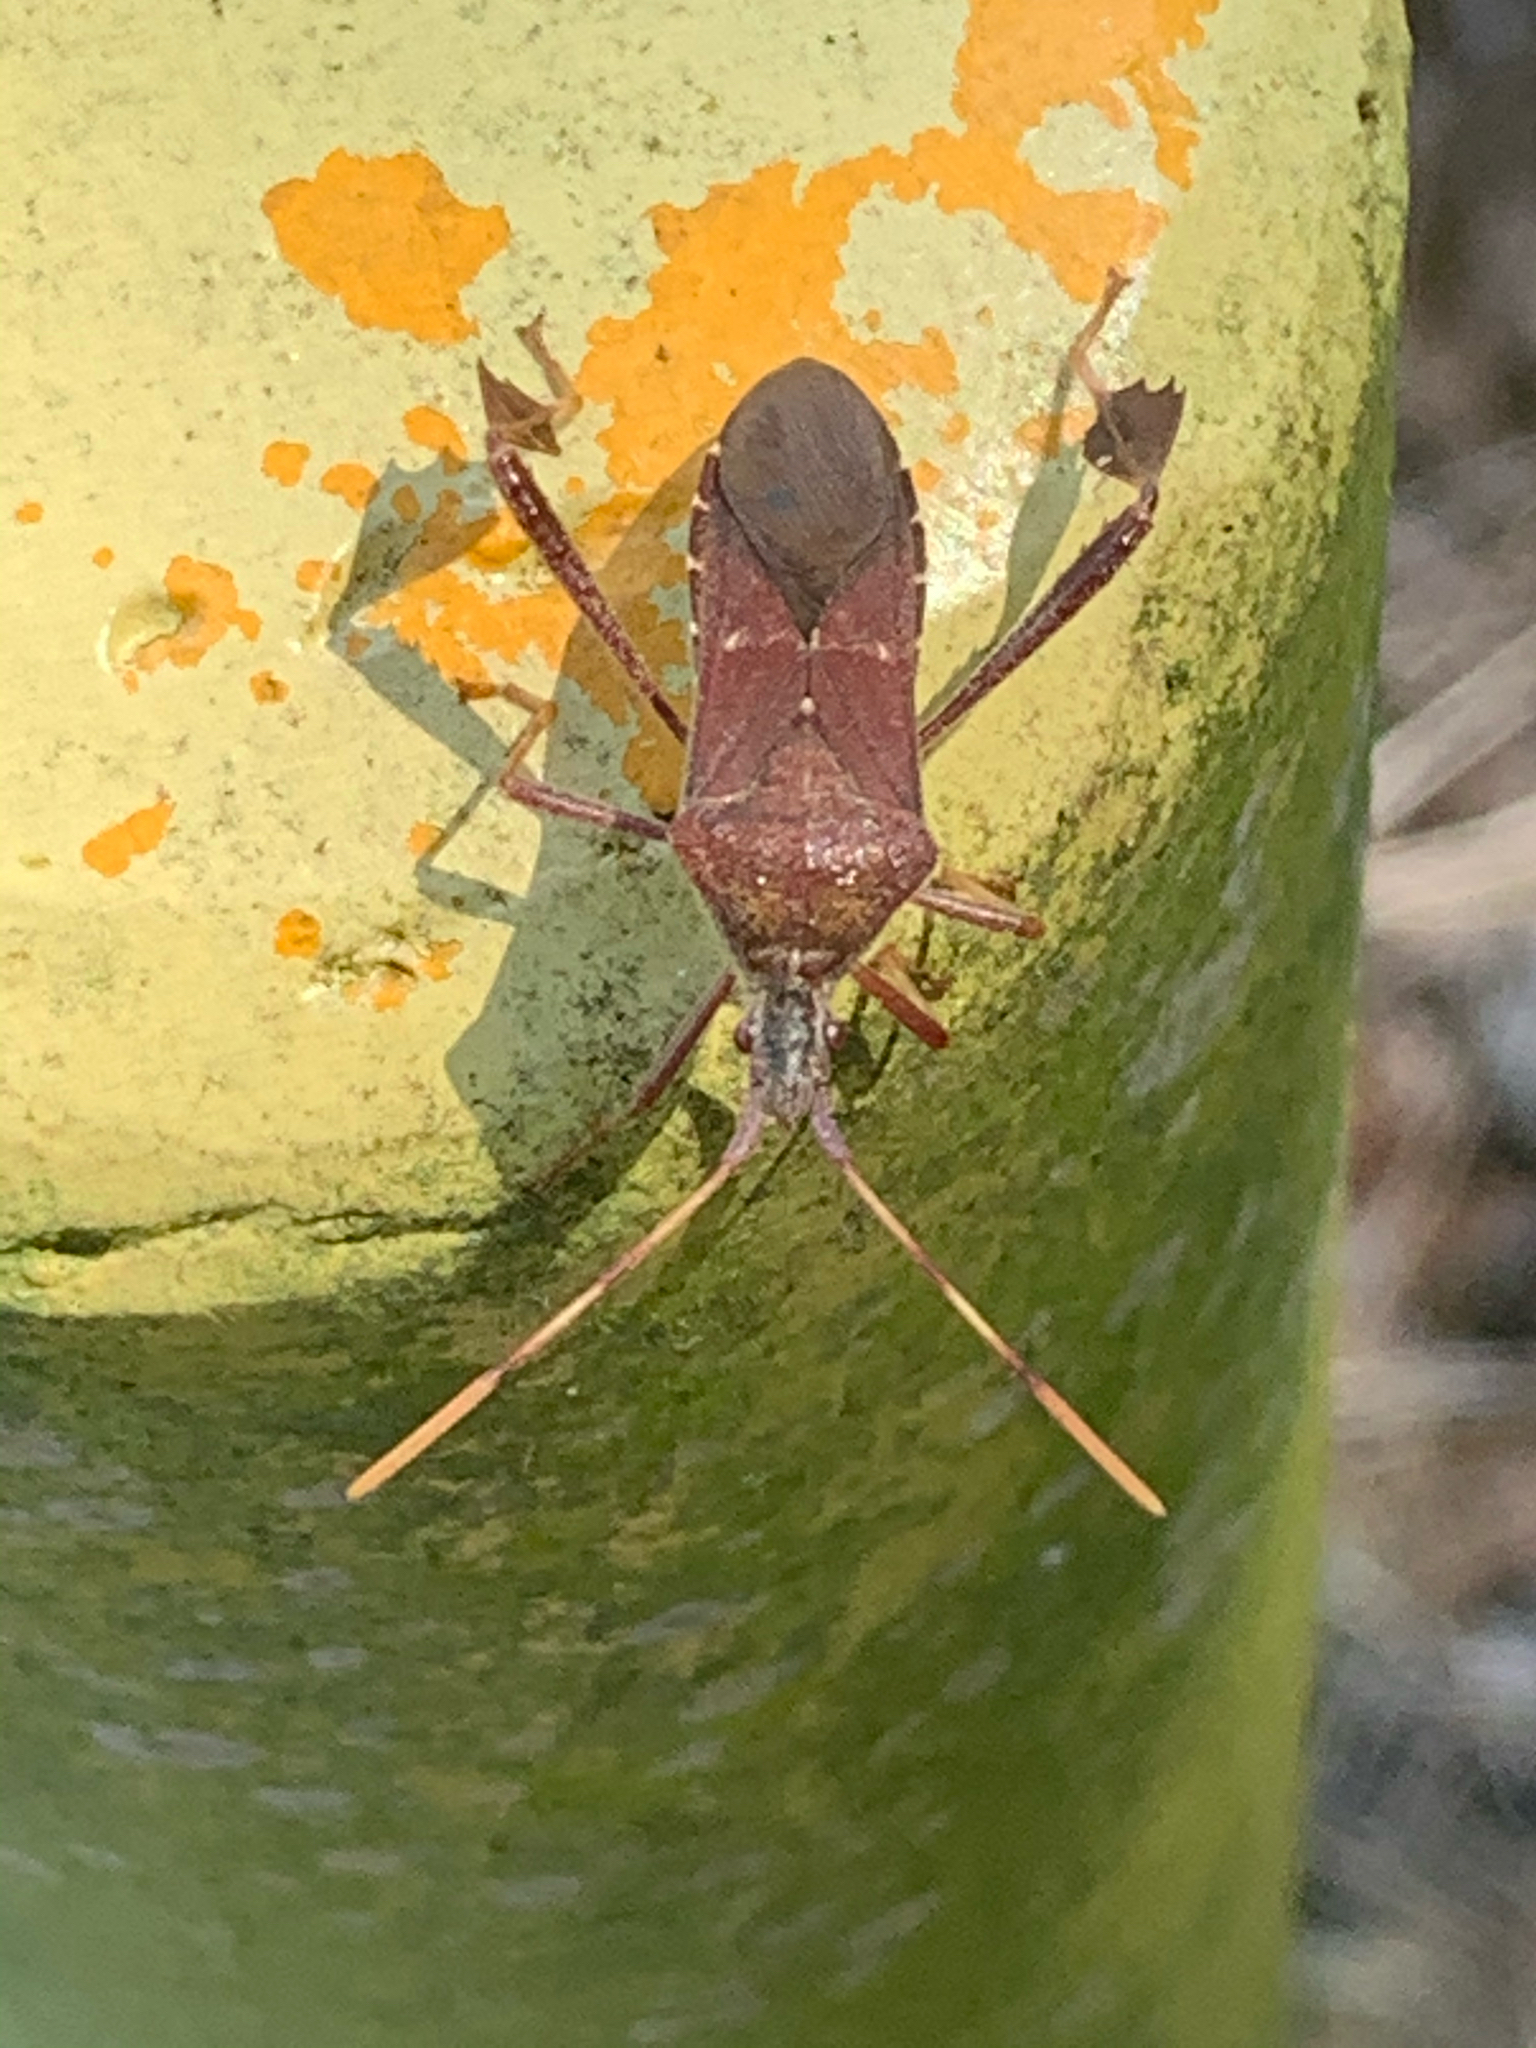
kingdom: Animalia
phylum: Arthropoda
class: Insecta
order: Hemiptera
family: Coreidae
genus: Leptoglossus
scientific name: Leptoglossus oppositus
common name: Northern leaf-footed bug
